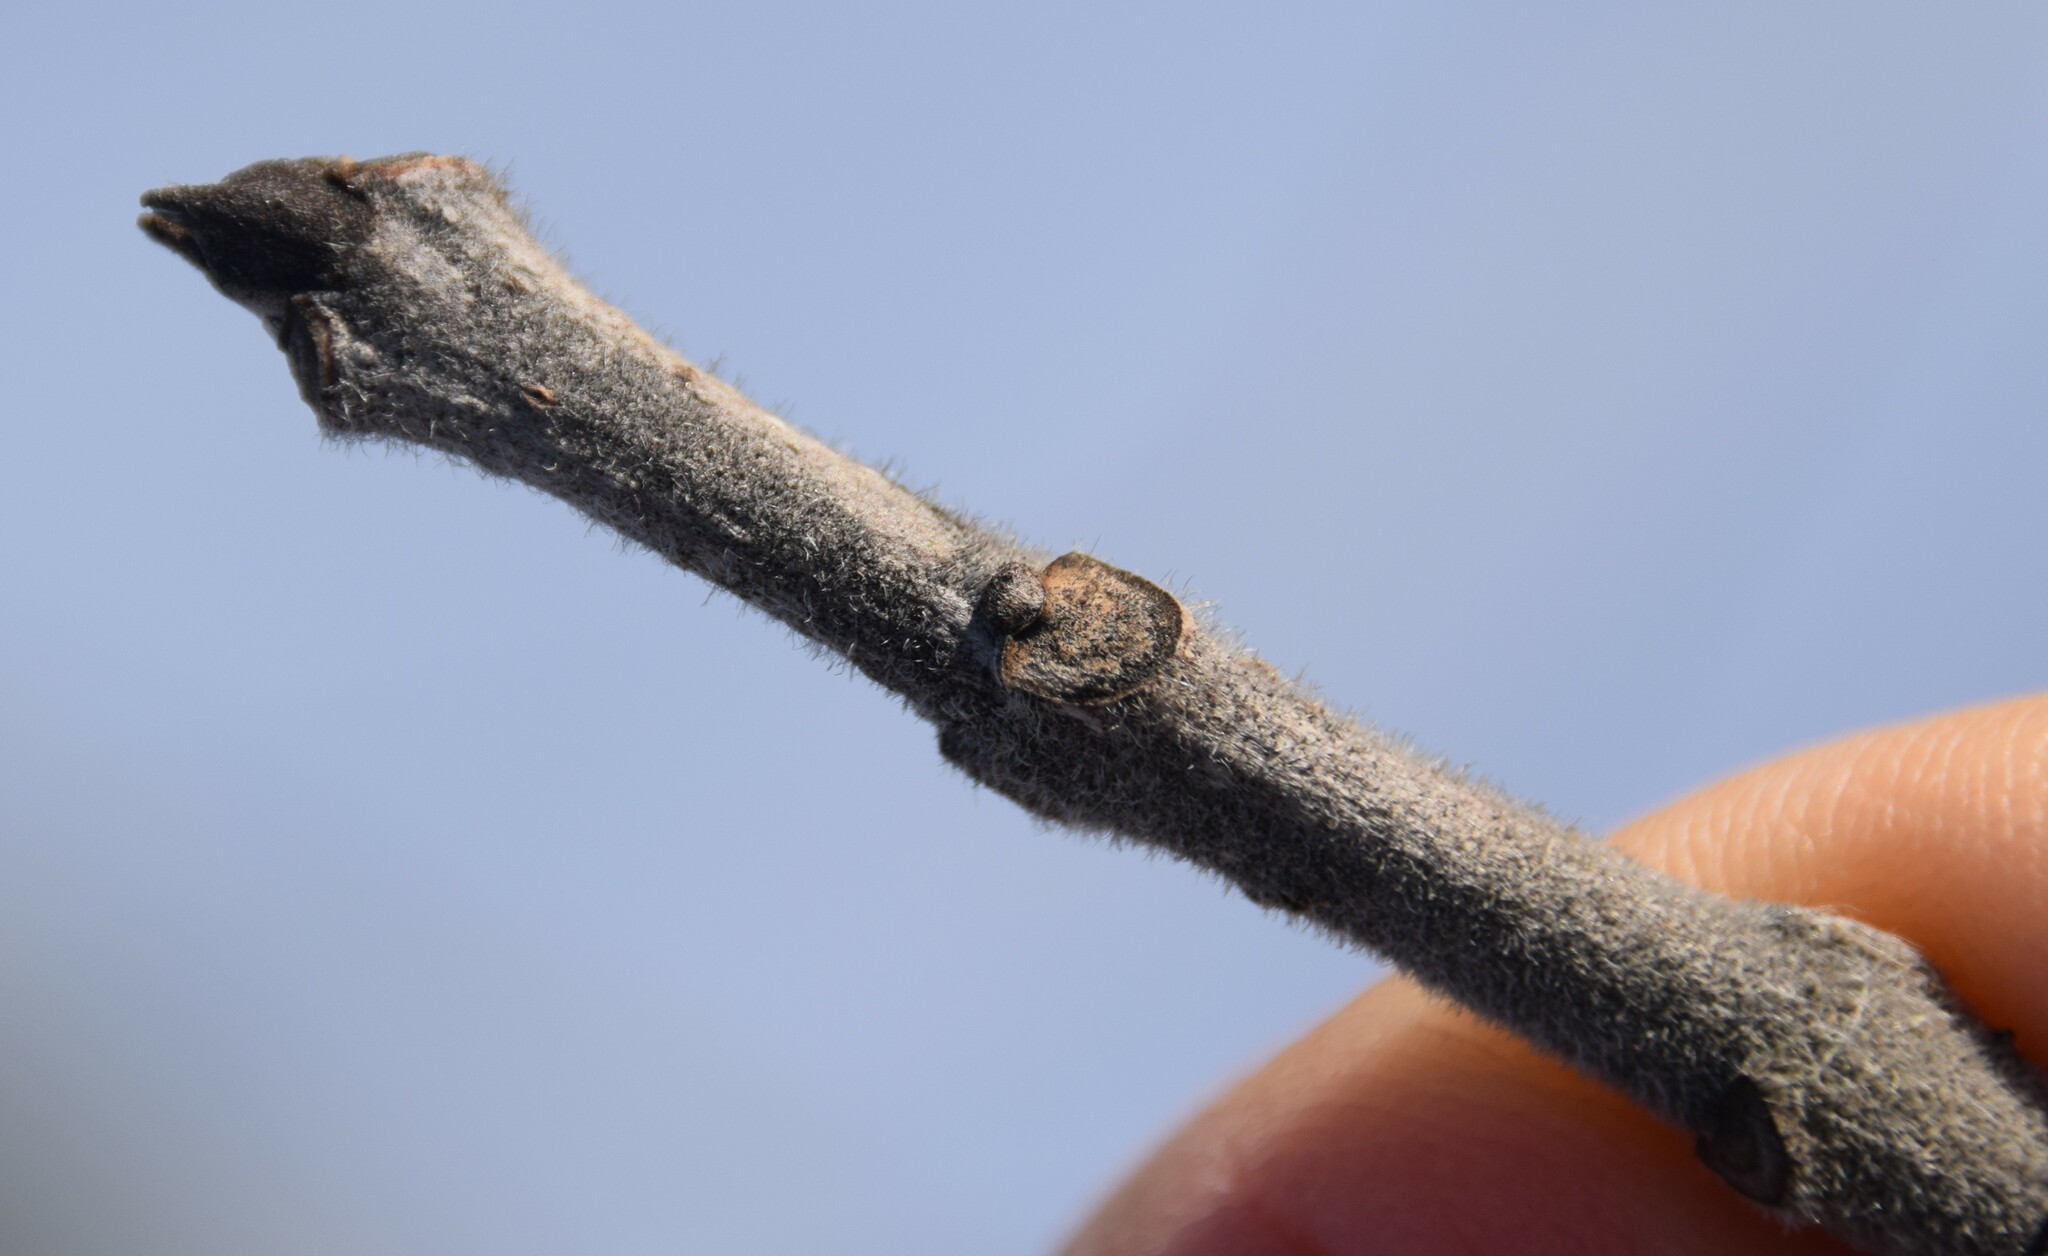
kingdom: Plantae
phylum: Tracheophyta
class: Magnoliopsida
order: Lamiales
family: Oleaceae
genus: Fraxinus
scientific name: Fraxinus pennsylvanica
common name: Green ash
